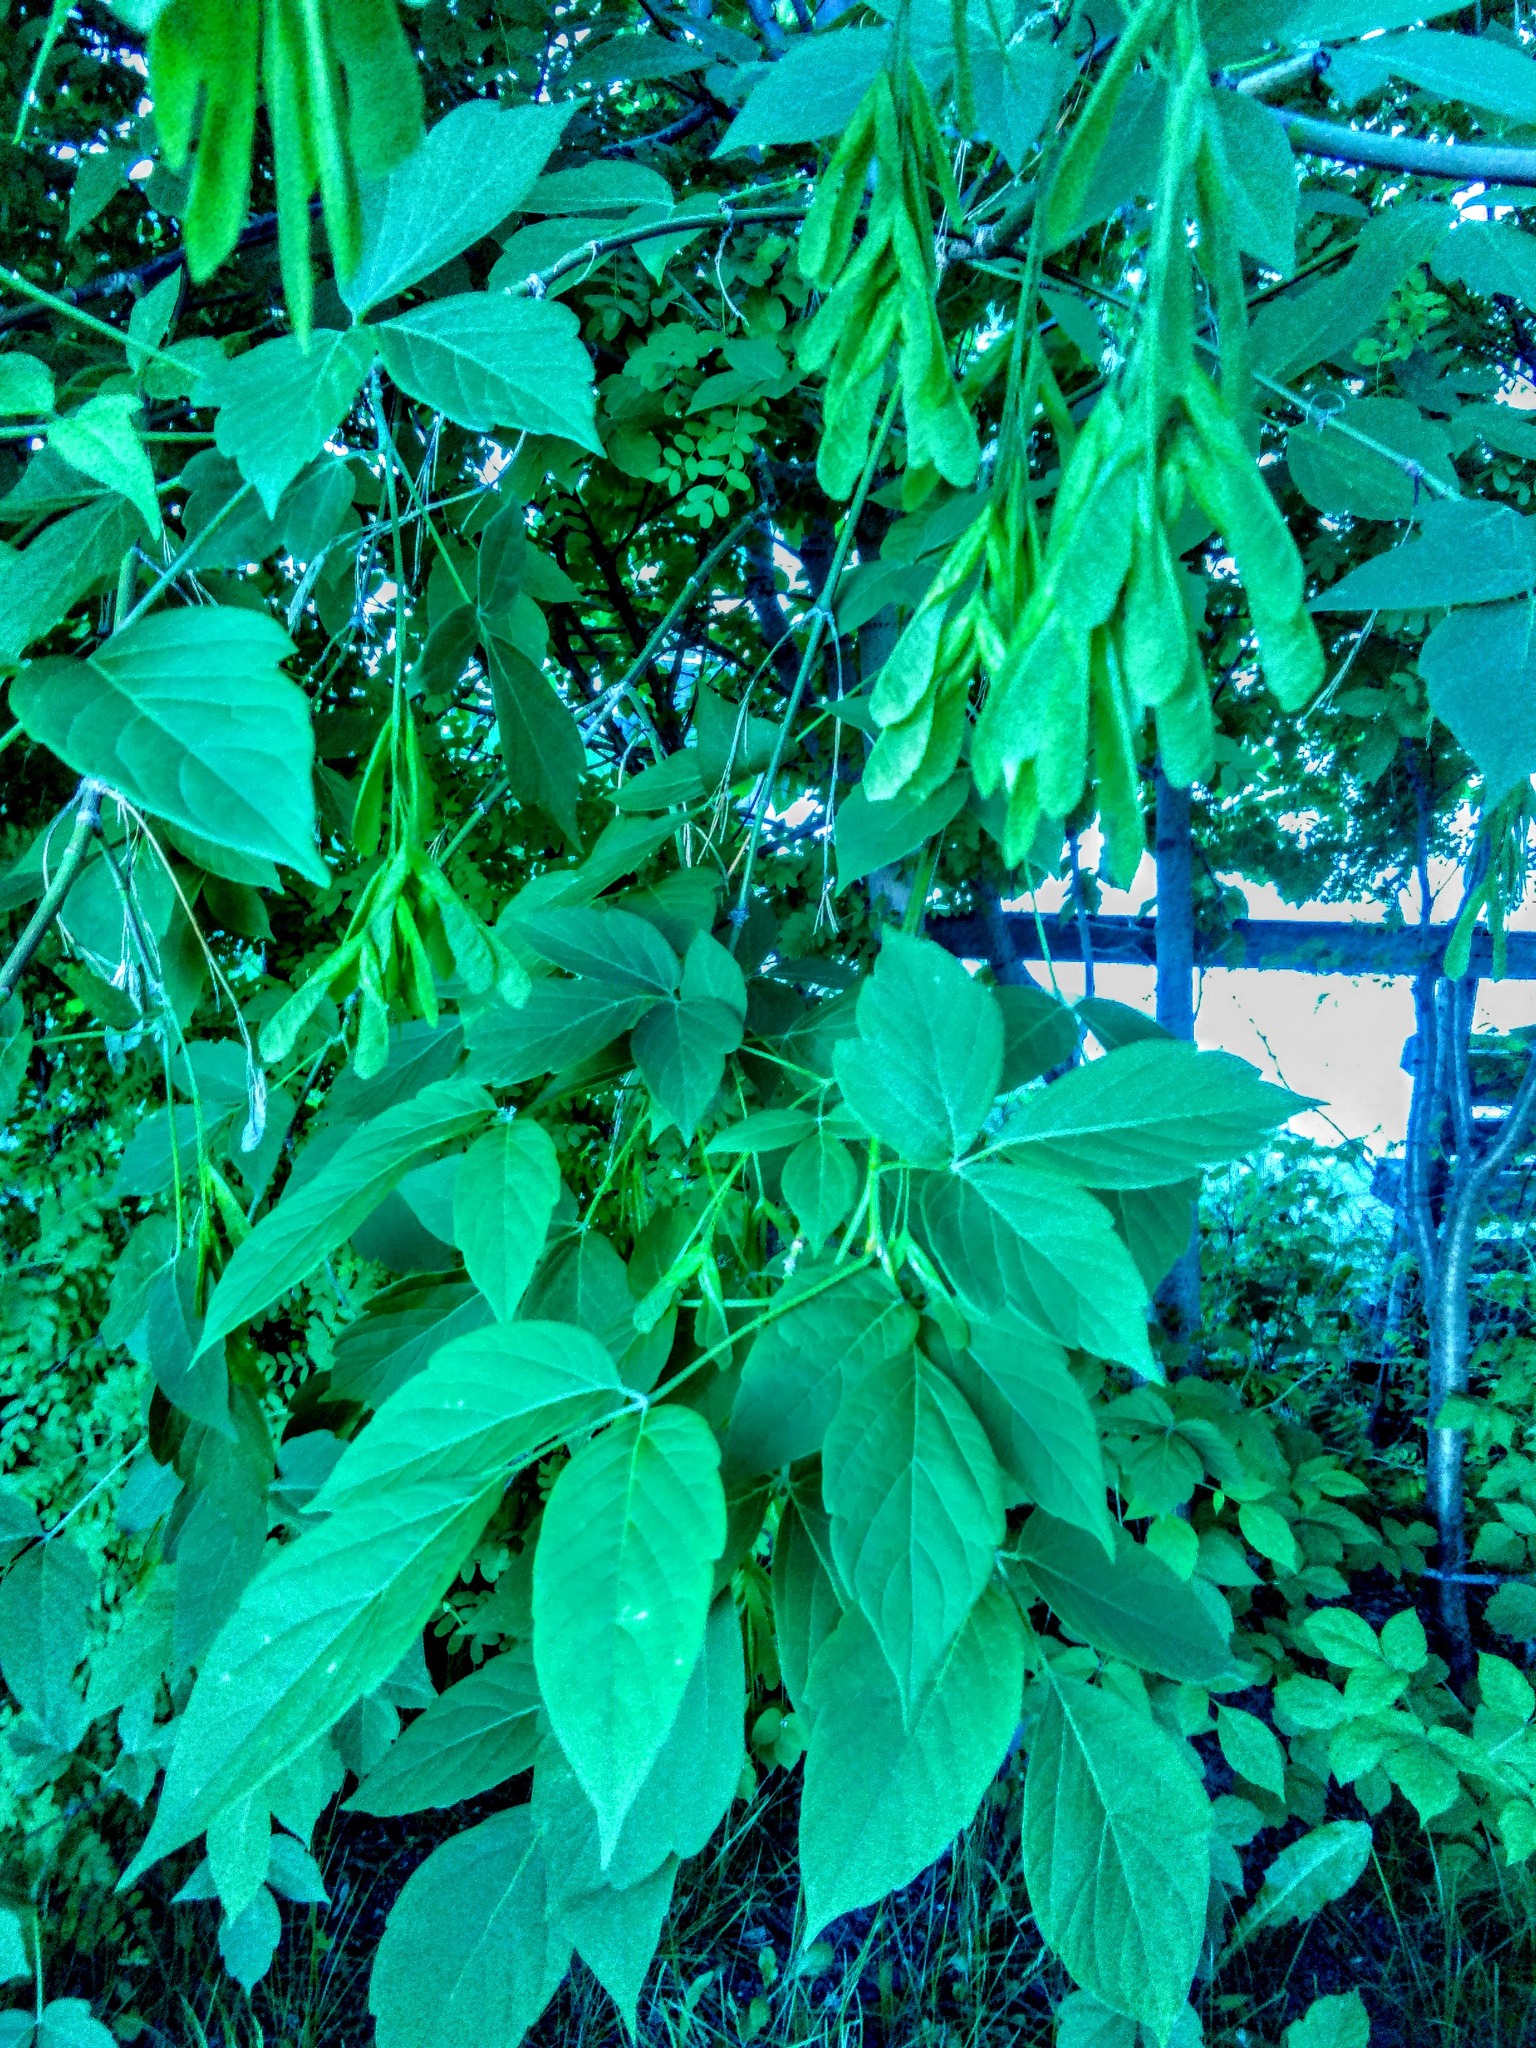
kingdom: Plantae
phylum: Tracheophyta
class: Magnoliopsida
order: Sapindales
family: Sapindaceae
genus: Acer
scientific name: Acer negundo
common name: Ashleaf maple
